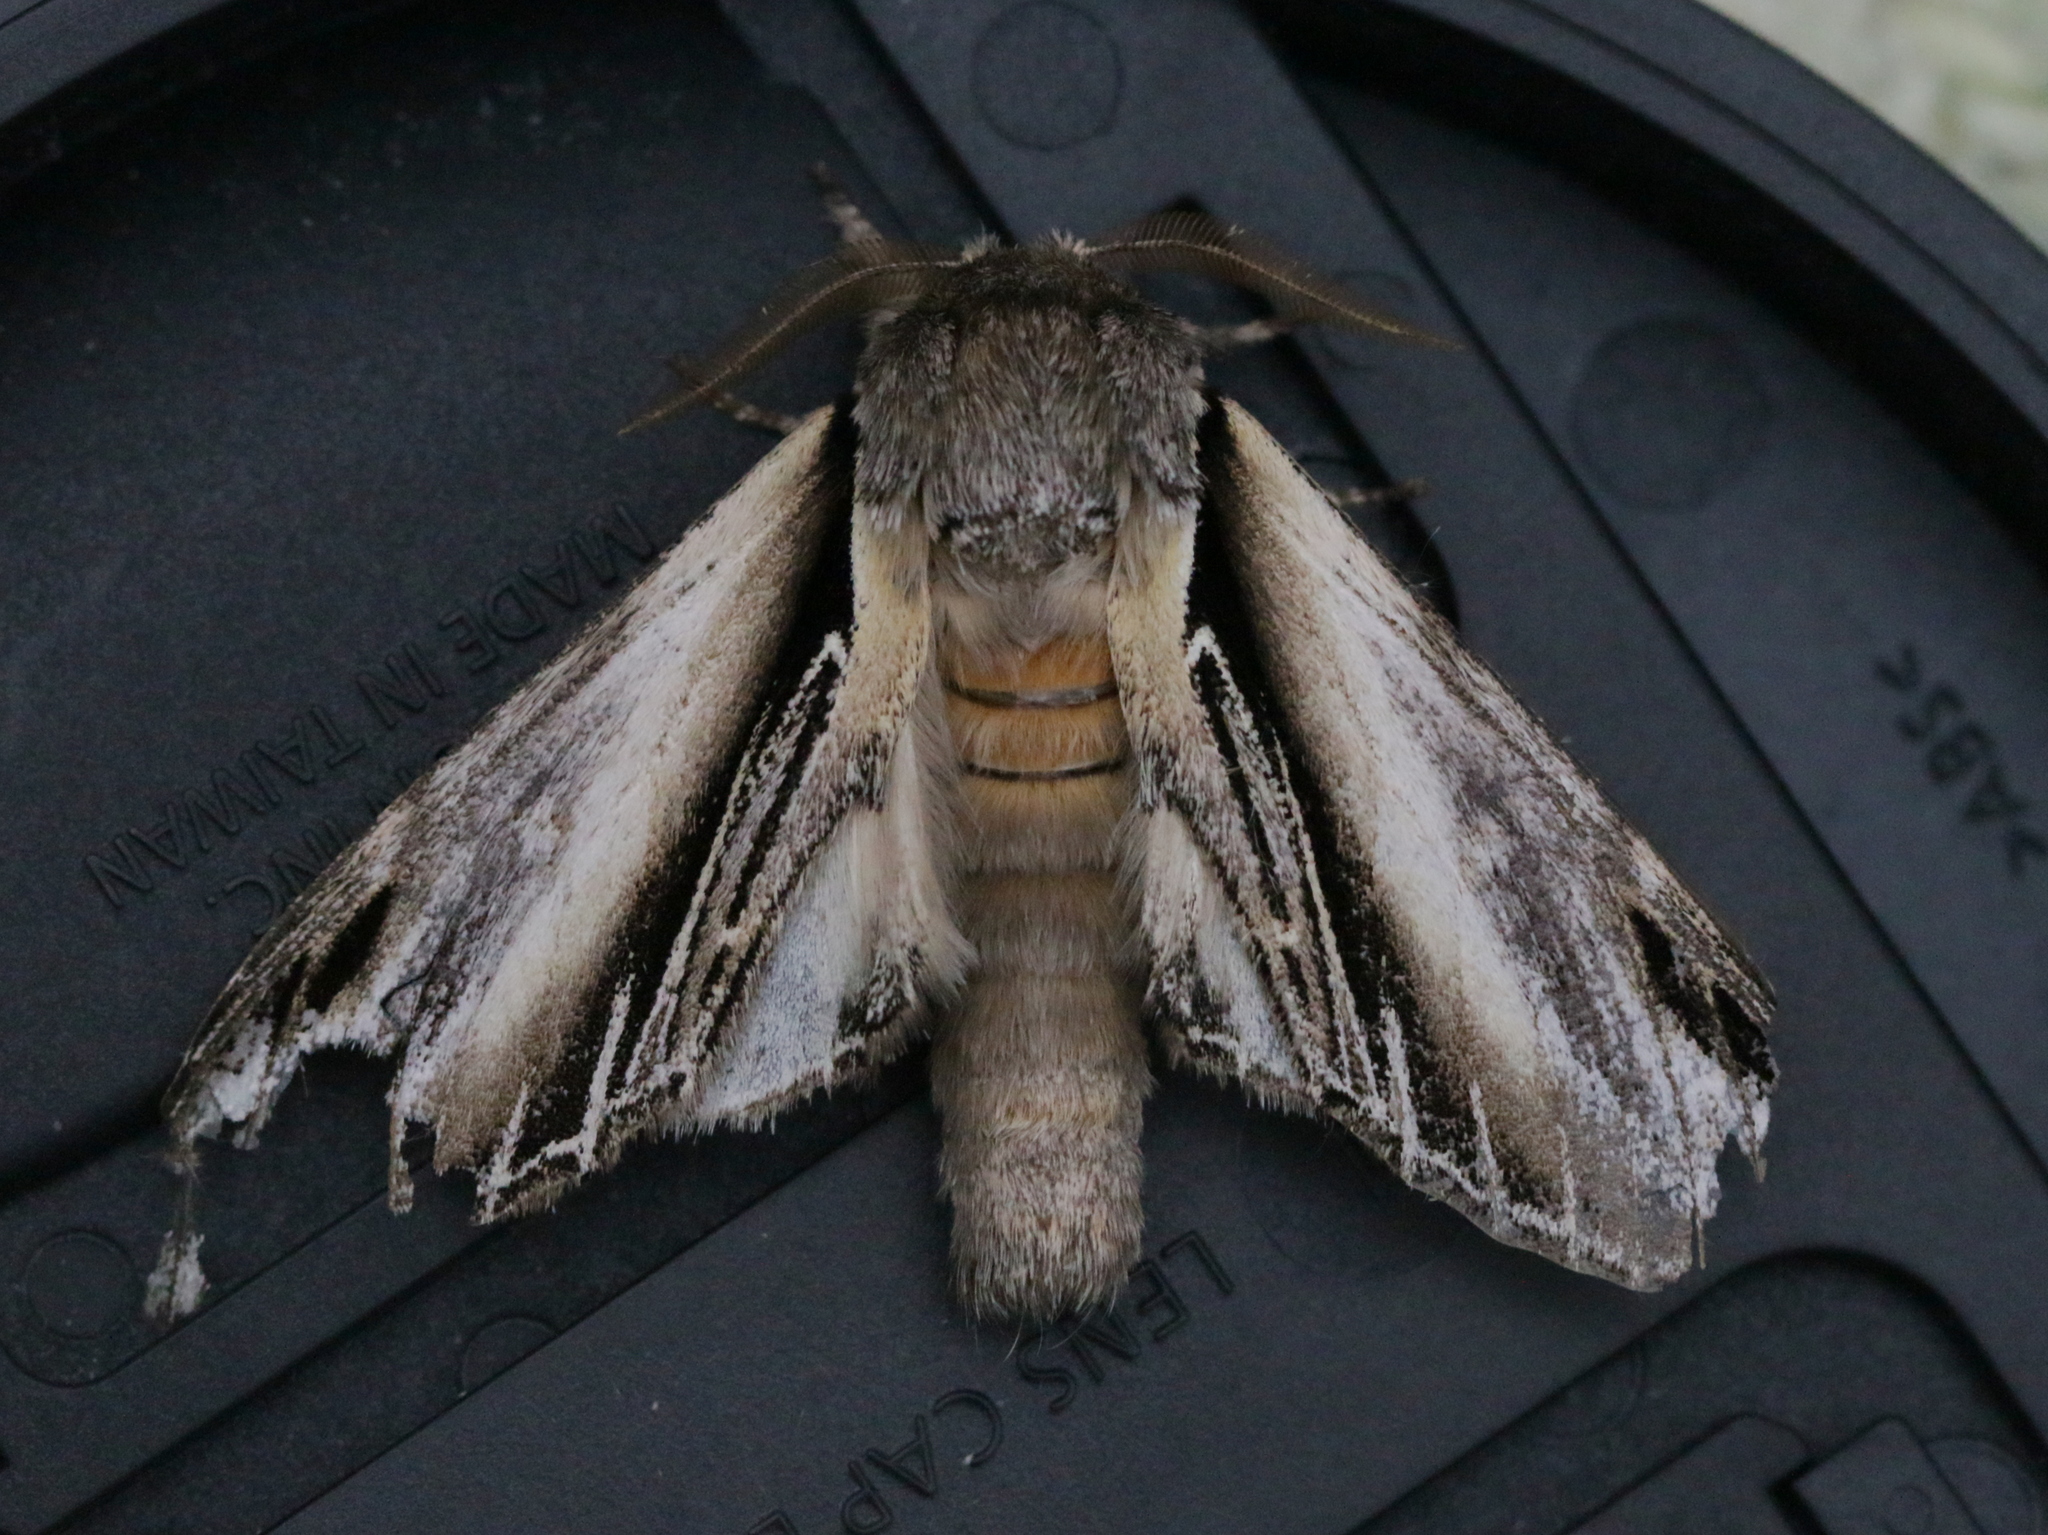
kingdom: Animalia
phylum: Arthropoda
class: Insecta
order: Lepidoptera
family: Notodontidae
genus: Pheosia
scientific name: Pheosia tremula
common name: Swallow prominent
